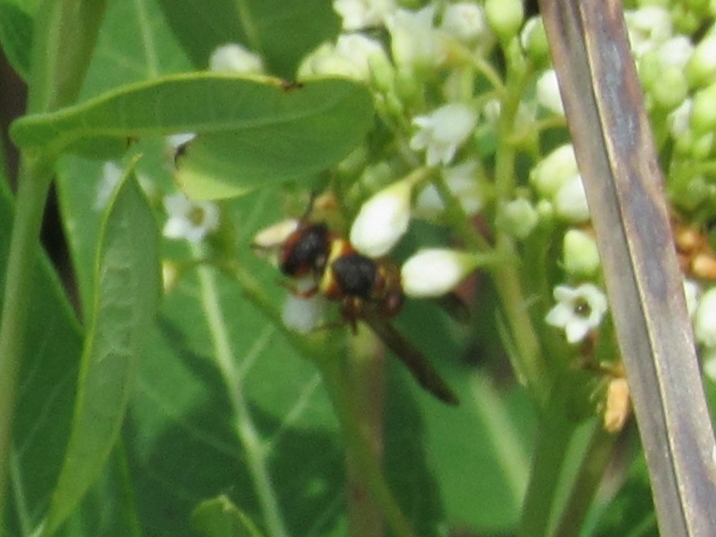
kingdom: Animalia
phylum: Arthropoda
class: Insecta
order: Hymenoptera
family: Eumenidae
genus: Euodynerus
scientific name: Euodynerus
